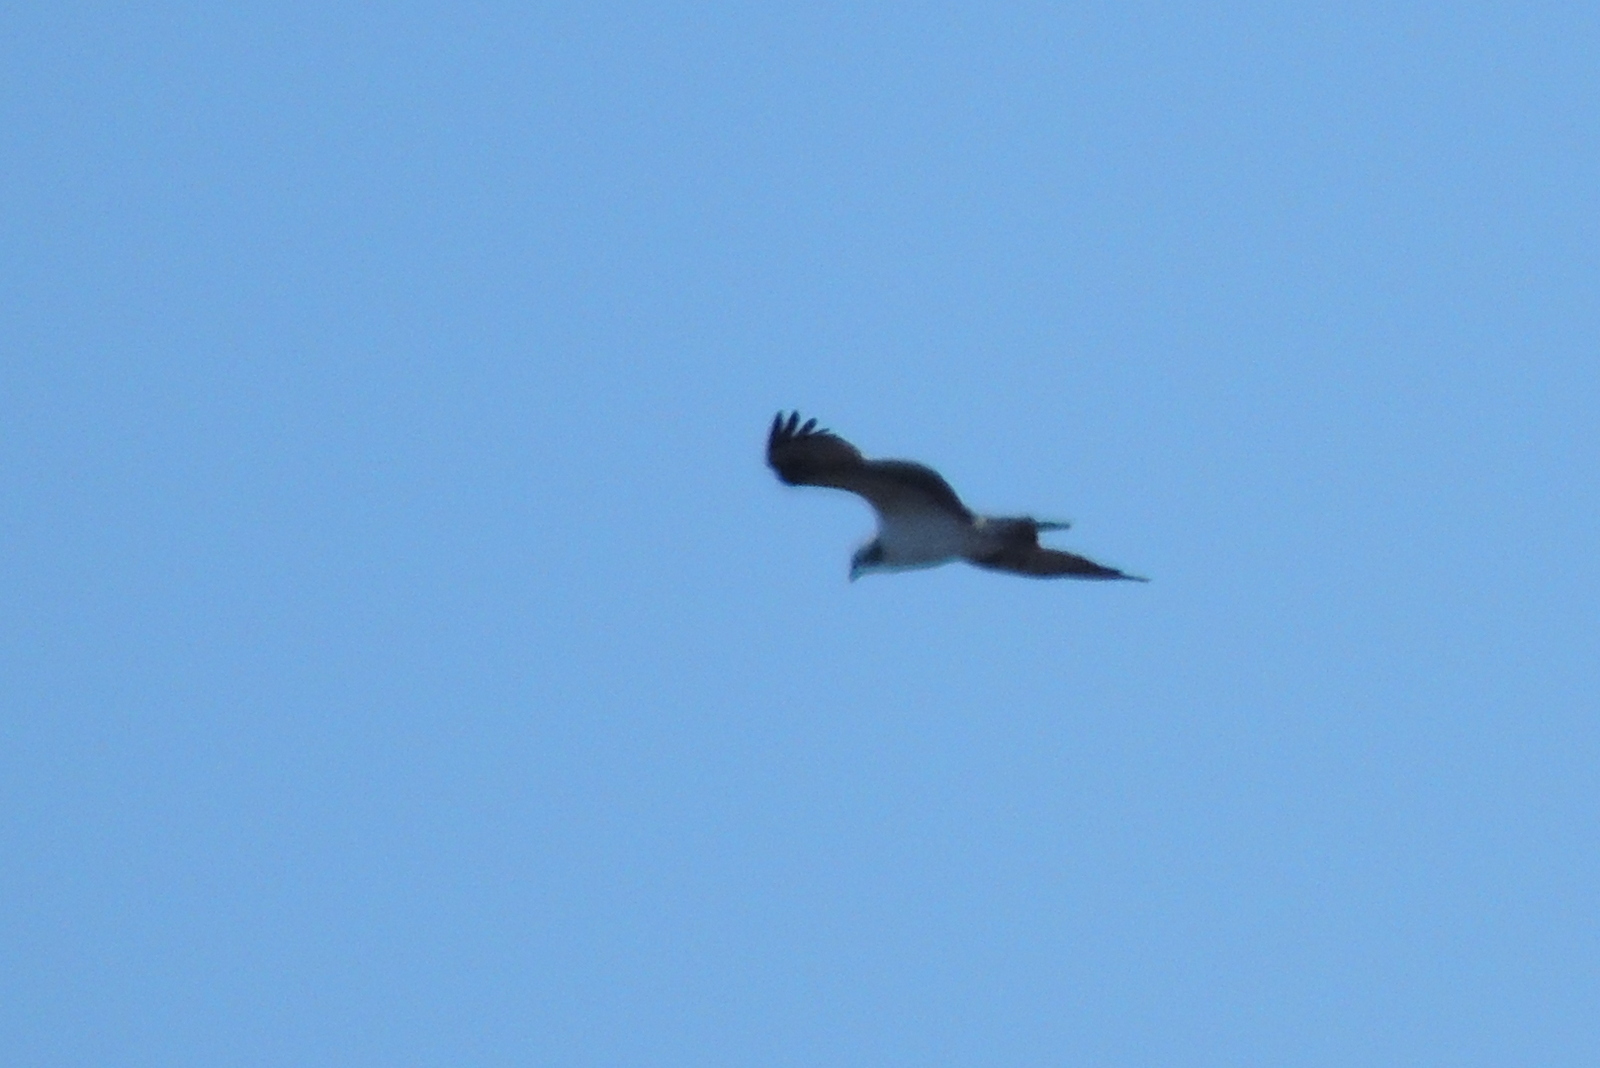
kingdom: Animalia
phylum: Chordata
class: Aves
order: Accipitriformes
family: Pandionidae
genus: Pandion
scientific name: Pandion haliaetus
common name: Osprey
